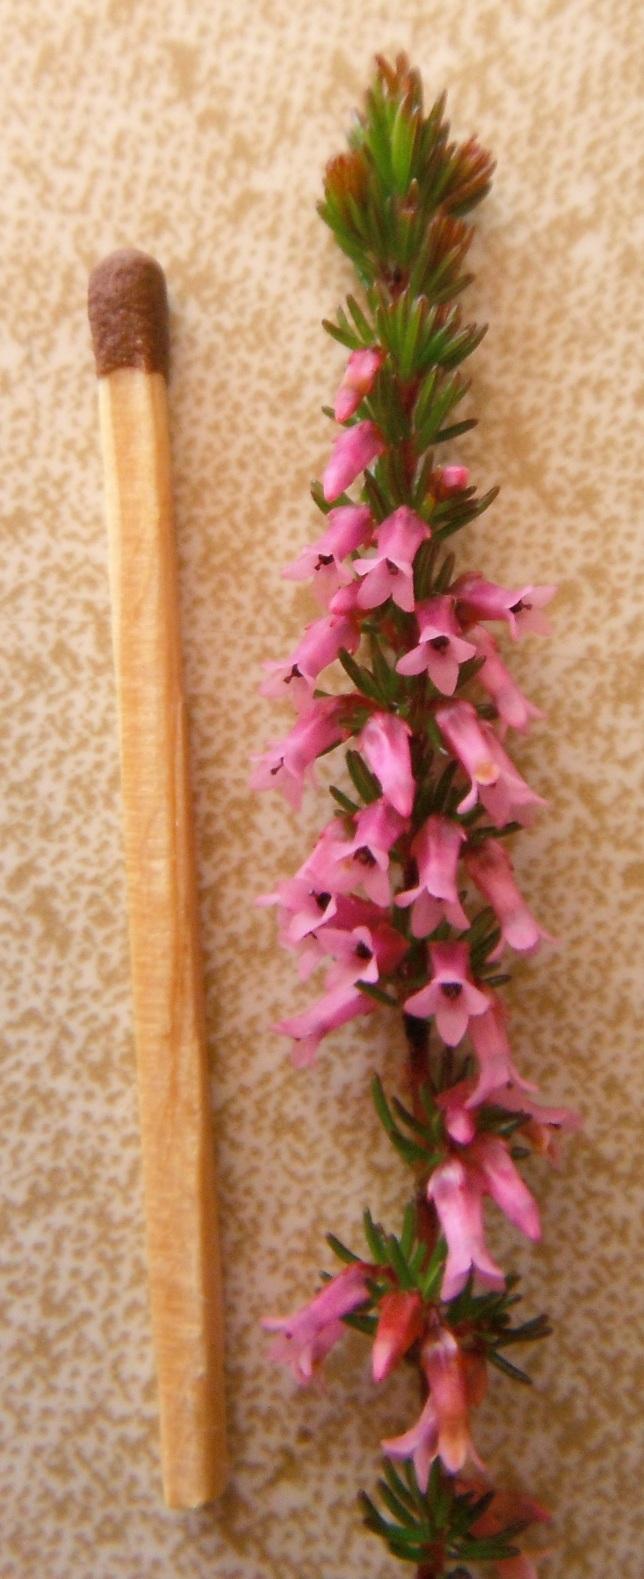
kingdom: Plantae
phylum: Tracheophyta
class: Magnoliopsida
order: Ericales
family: Ericaceae
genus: Erica
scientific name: Erica intervallaris
